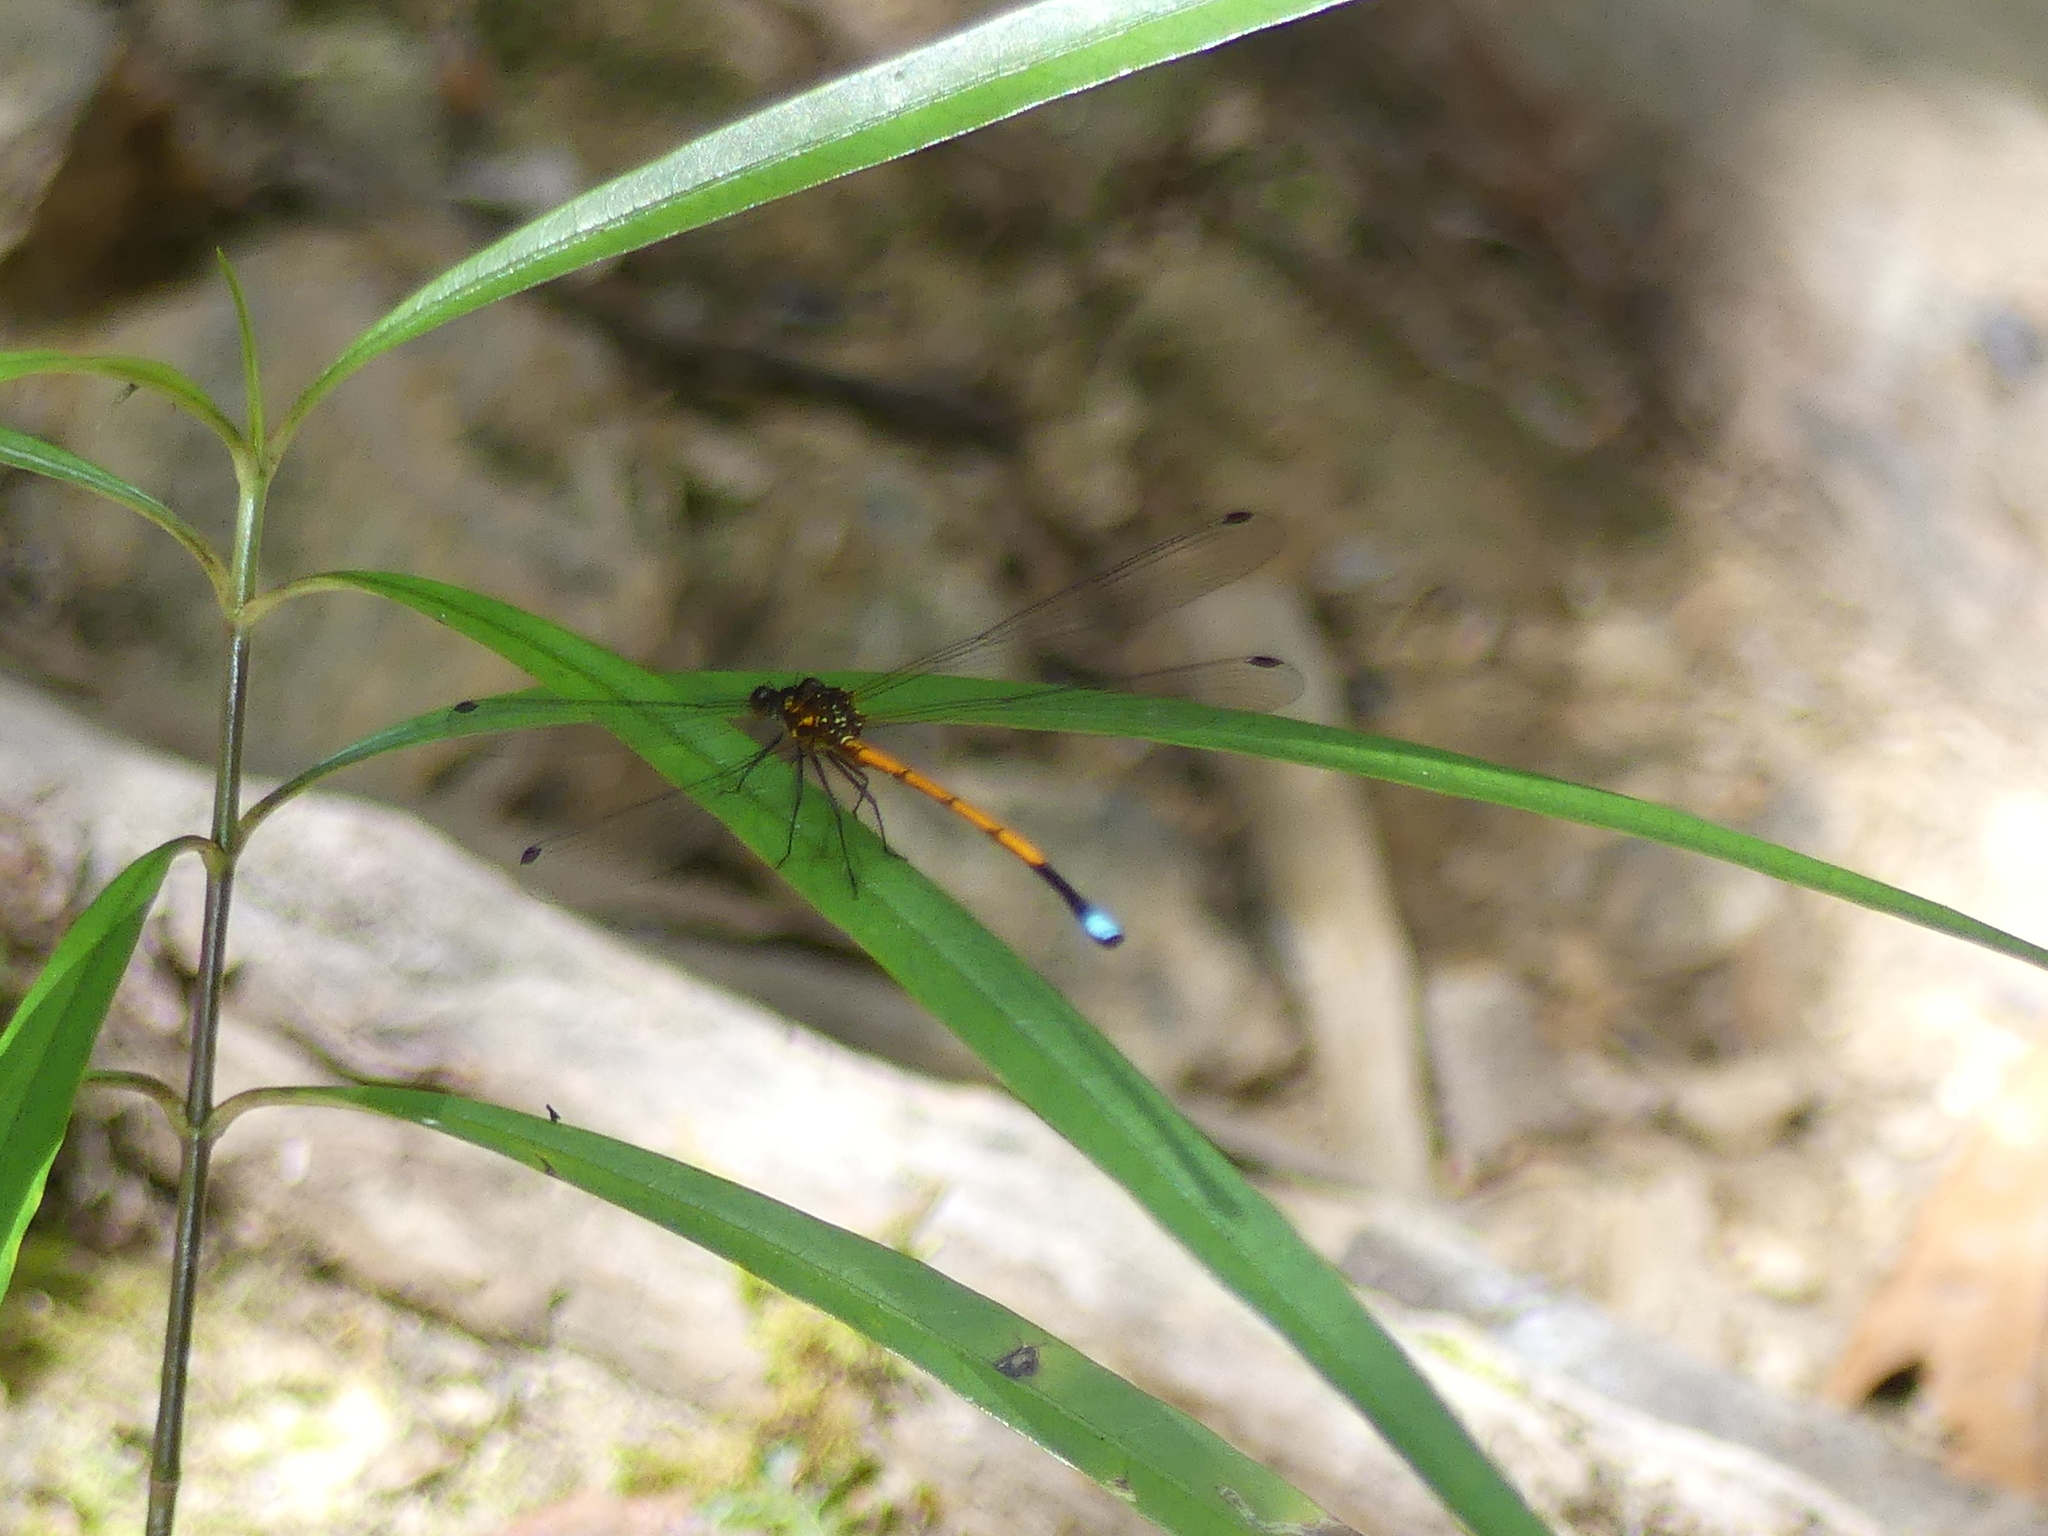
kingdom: Animalia
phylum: Arthropoda
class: Insecta
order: Odonata
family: Argiolestidae
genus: Eoargiolestes
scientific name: Eoargiolestes ochraceus
